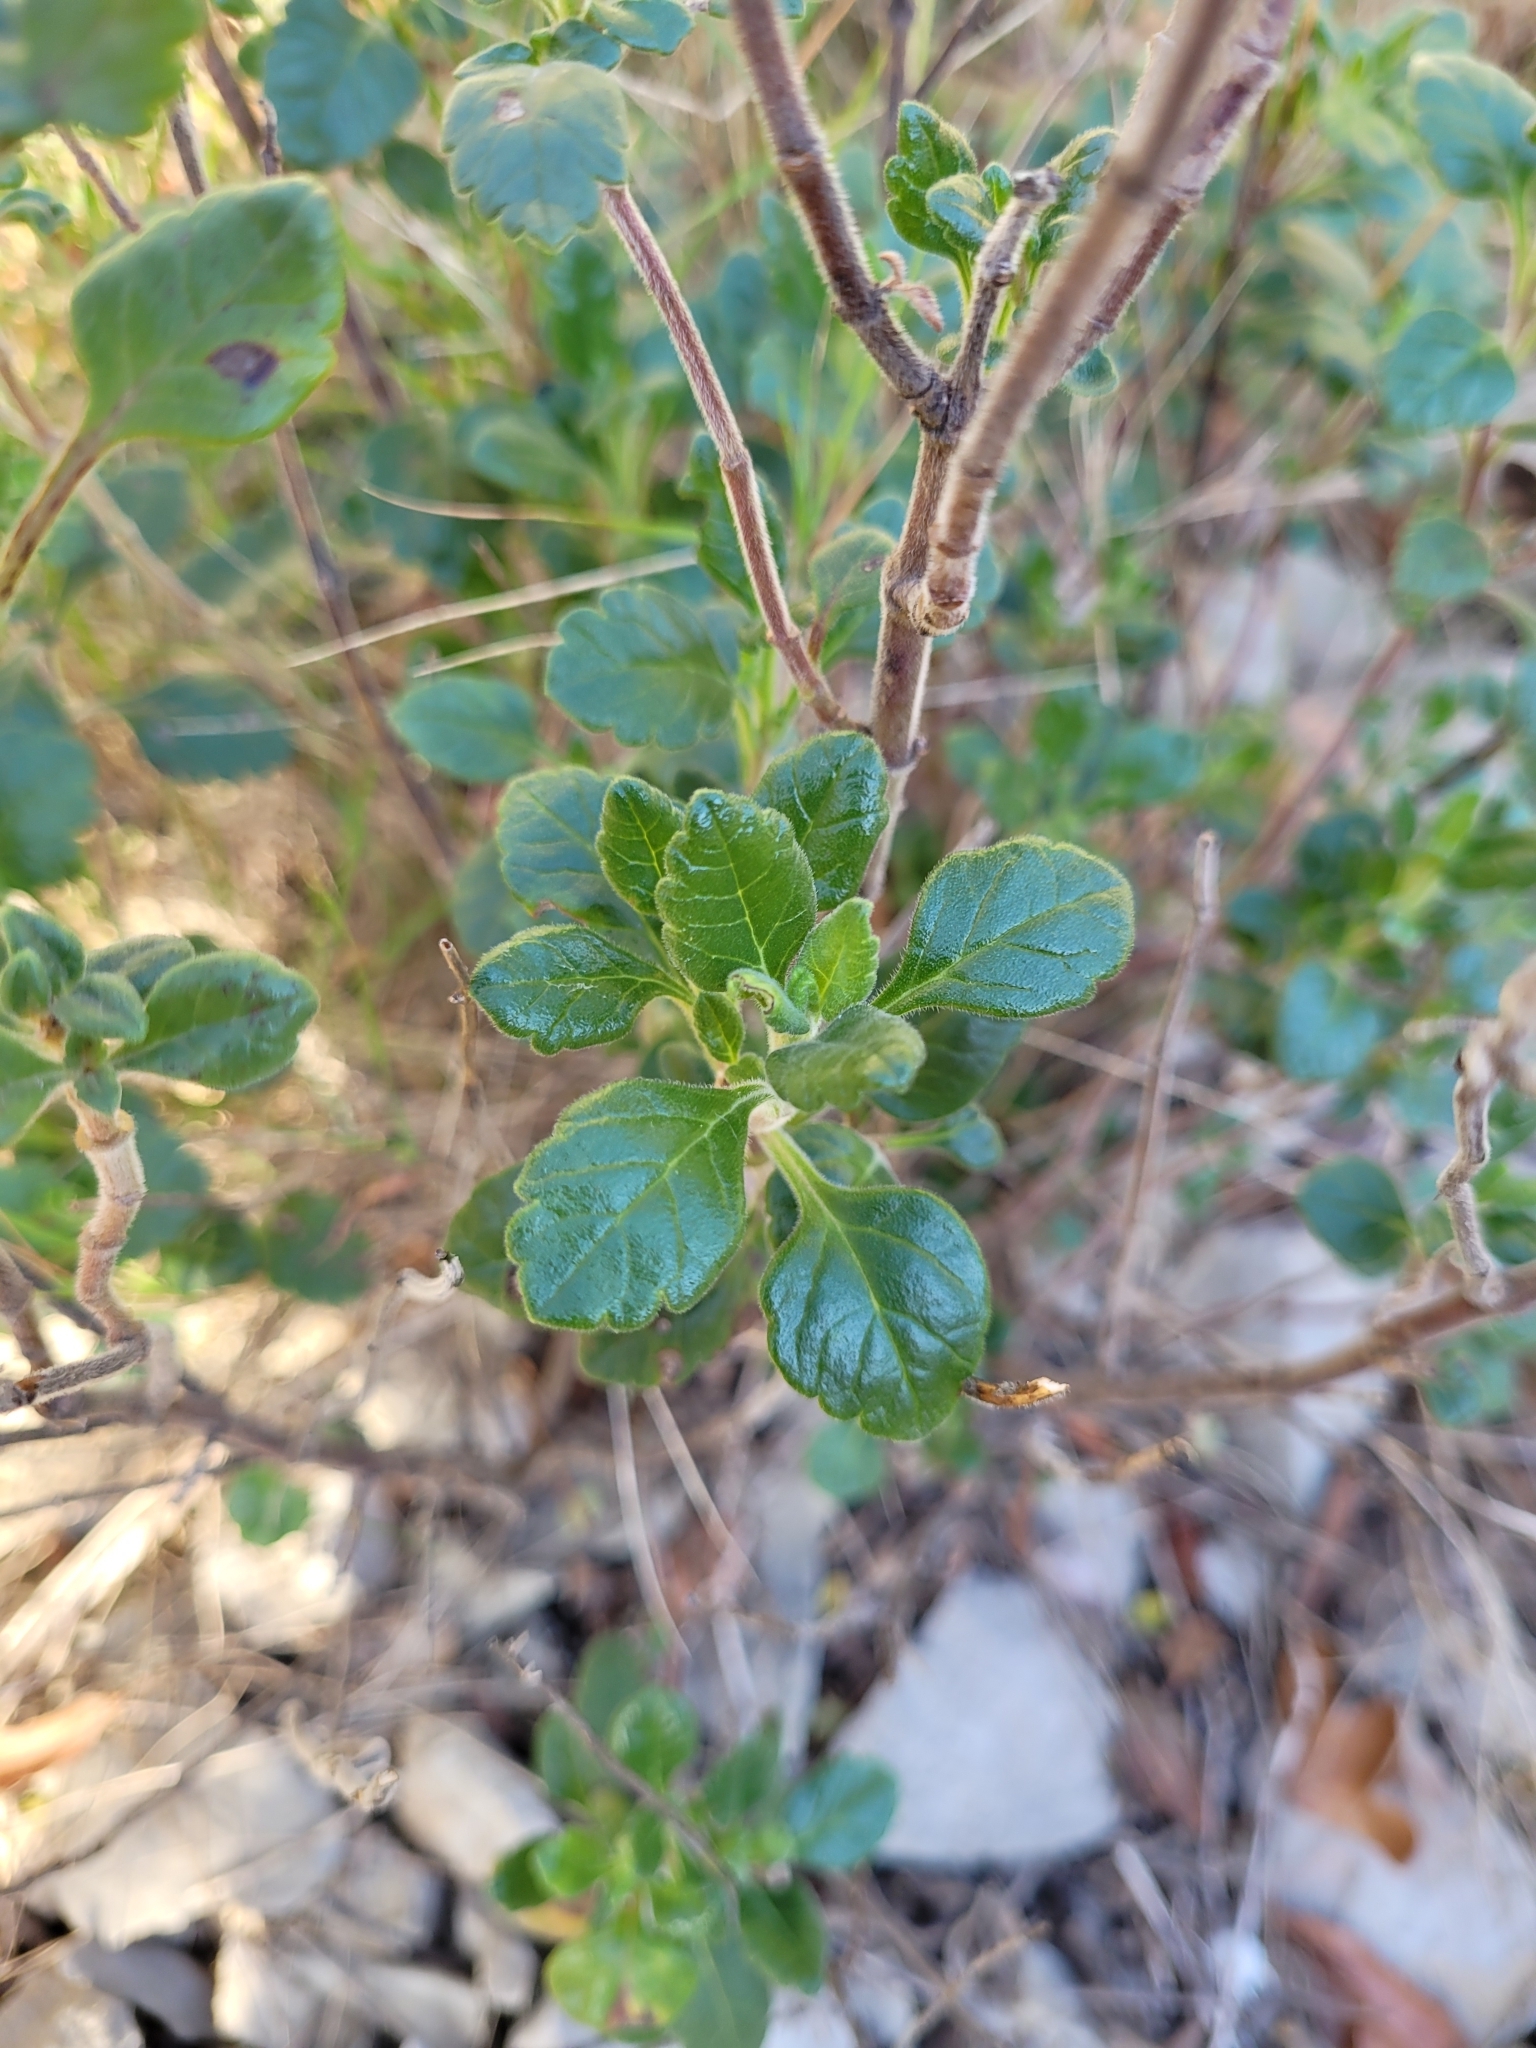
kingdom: Plantae
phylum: Tracheophyta
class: Magnoliopsida
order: Lamiales
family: Lamiaceae
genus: Teucrium
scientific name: Teucrium flavum
